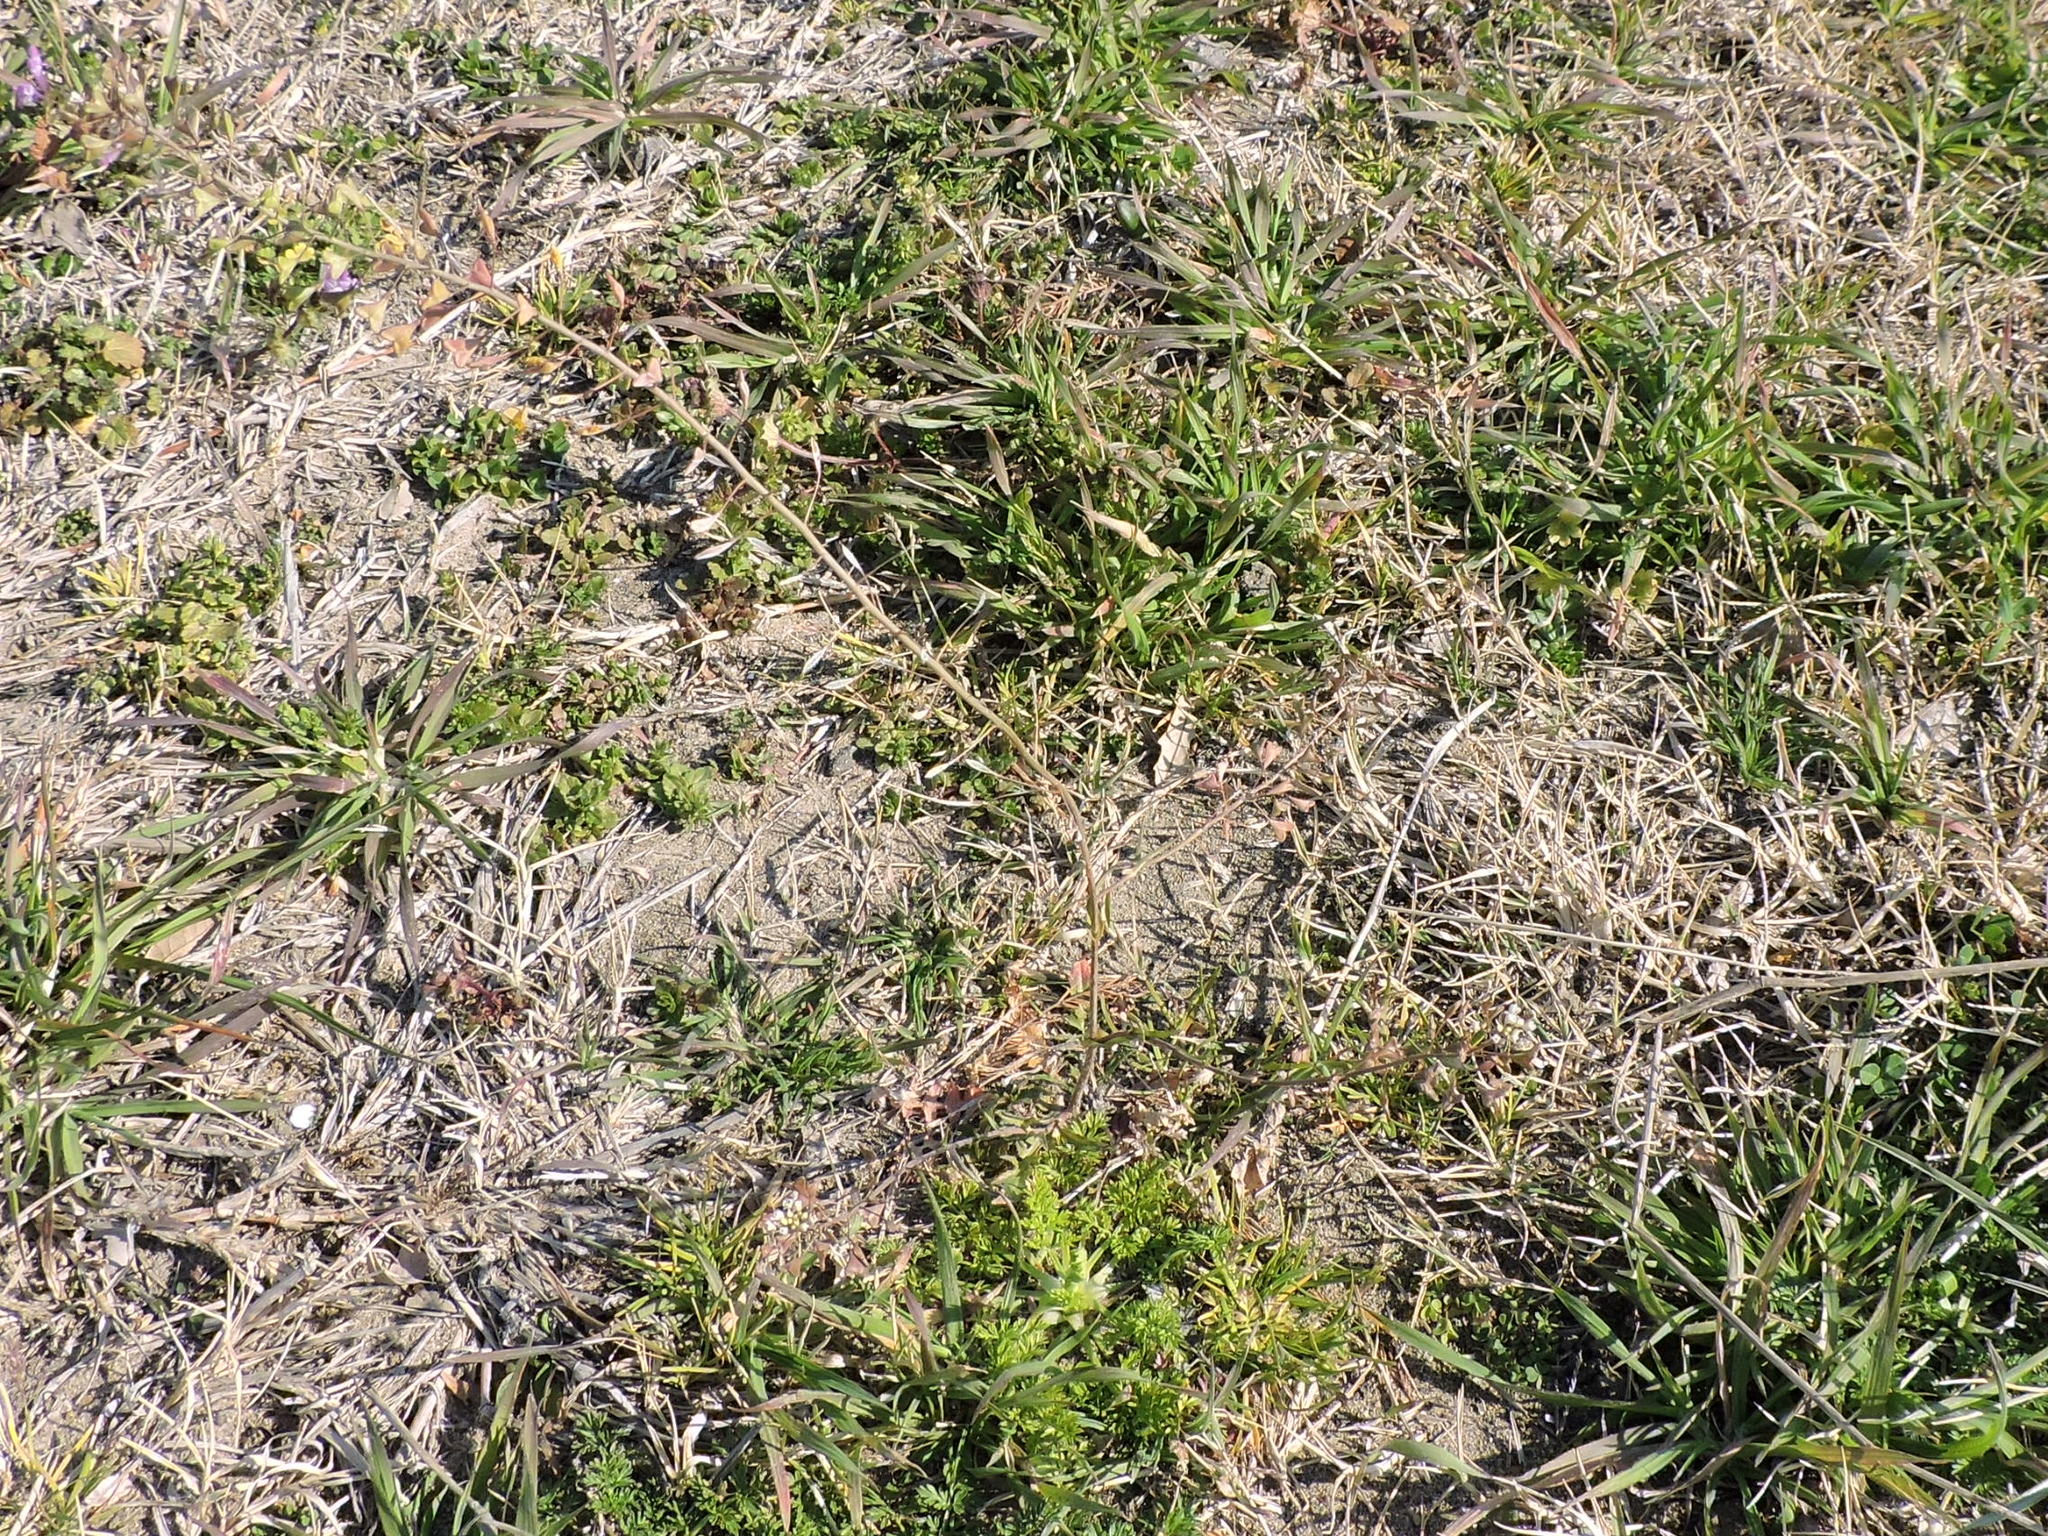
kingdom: Plantae
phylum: Tracheophyta
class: Magnoliopsida
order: Brassicales
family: Brassicaceae
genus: Capsella
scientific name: Capsella bursa-pastoris
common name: Shepherd's purse
